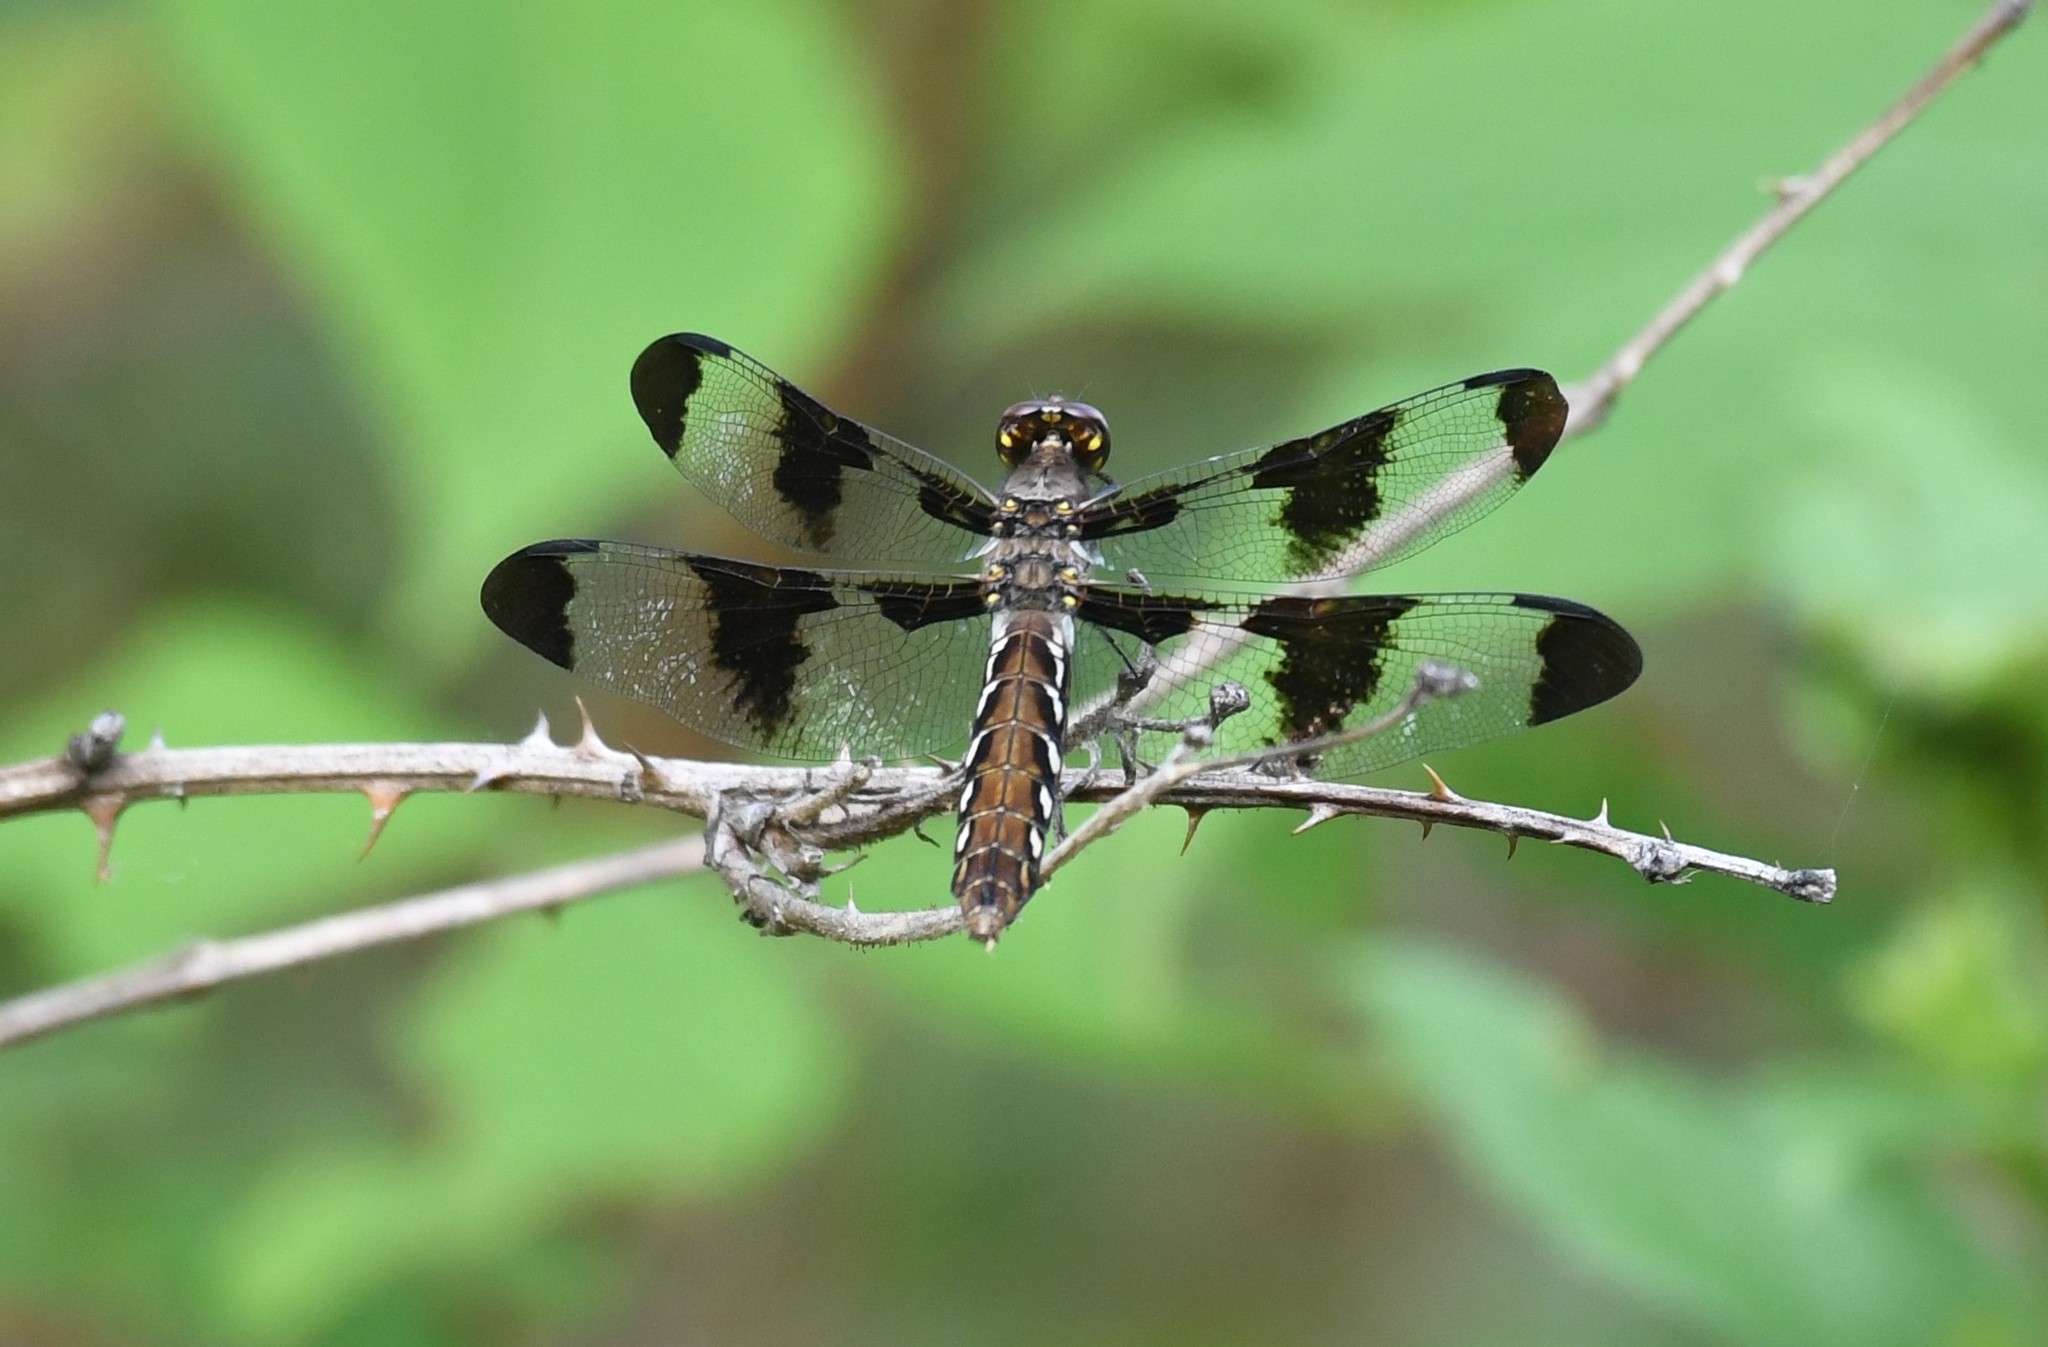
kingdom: Animalia
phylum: Arthropoda
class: Insecta
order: Odonata
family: Libellulidae
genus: Plathemis
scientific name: Plathemis lydia
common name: Common whitetail
